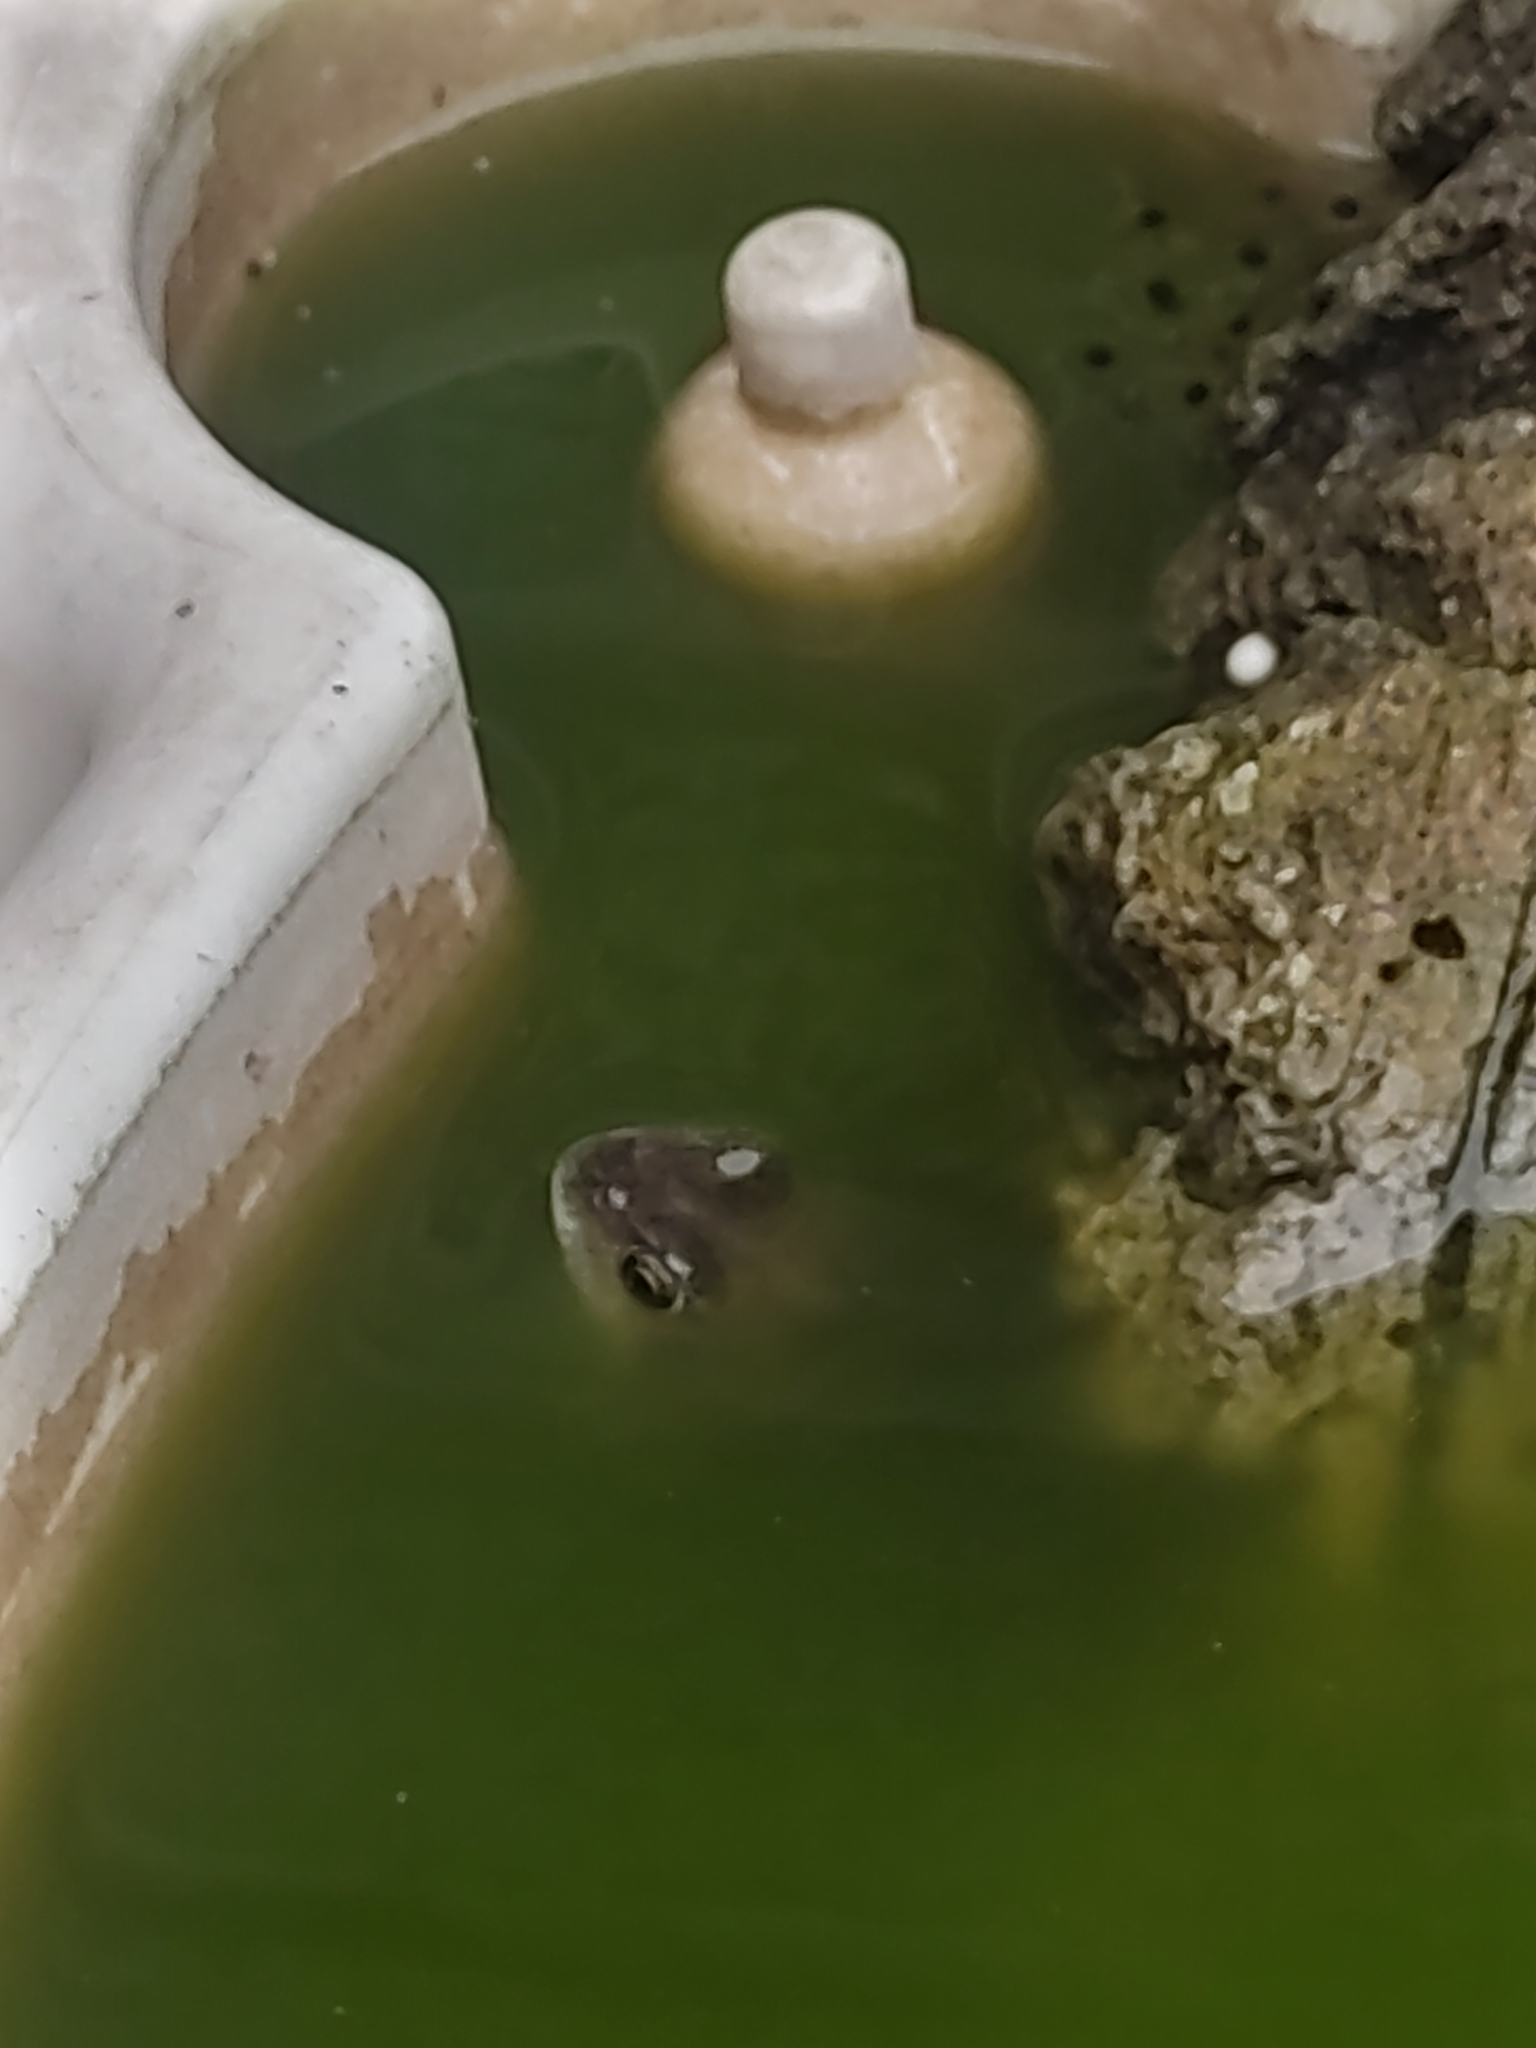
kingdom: Animalia
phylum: Chordata
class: Amphibia
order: Anura
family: Ranidae
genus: Rana
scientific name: Rana temporaria
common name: Common frog
